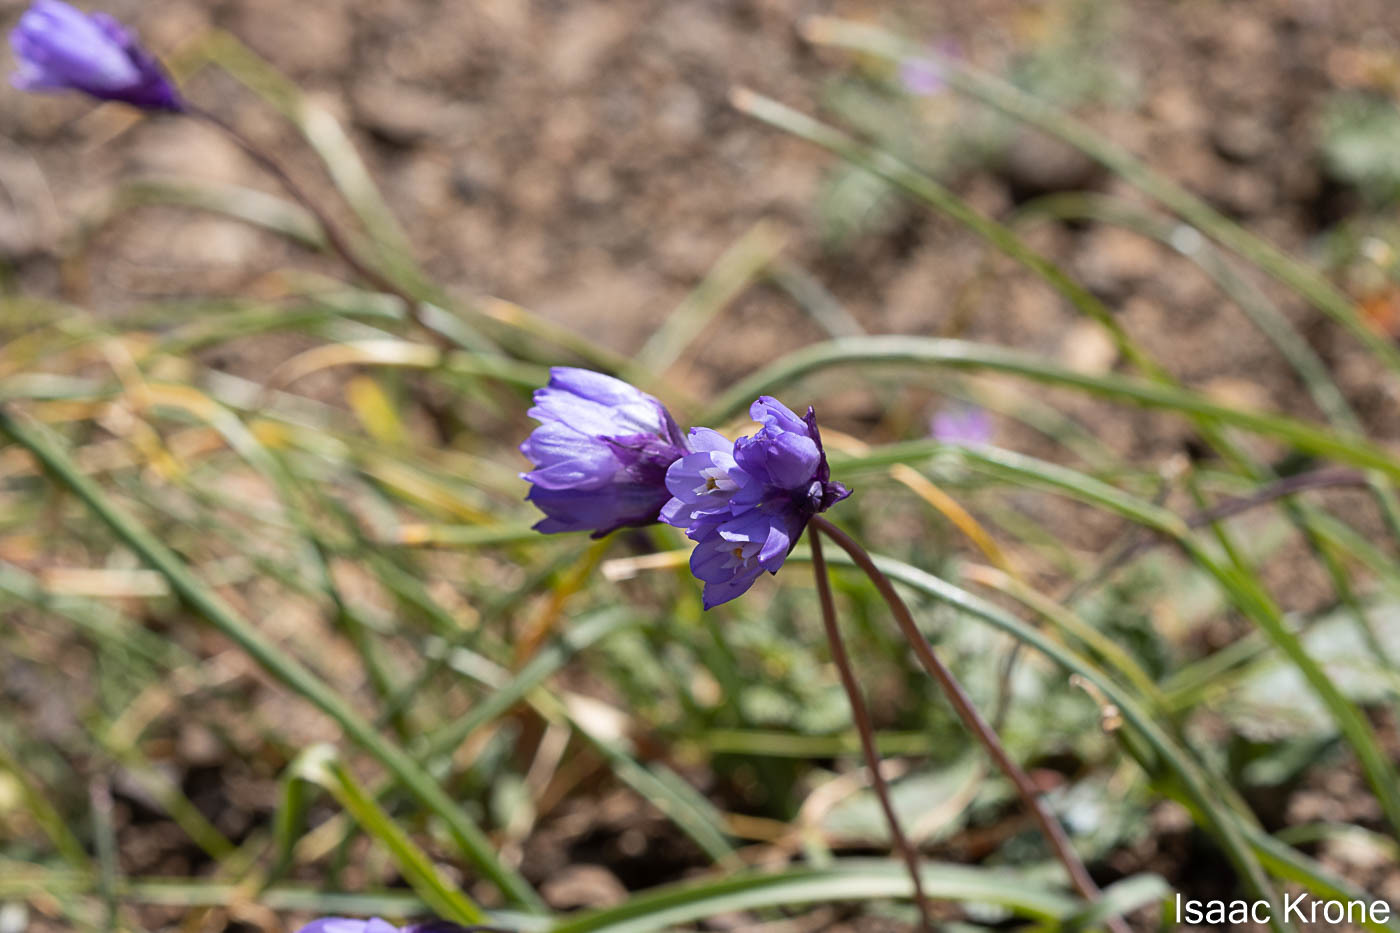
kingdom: Plantae
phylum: Tracheophyta
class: Liliopsida
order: Asparagales
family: Asparagaceae
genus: Dipterostemon
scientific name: Dipterostemon capitatus
